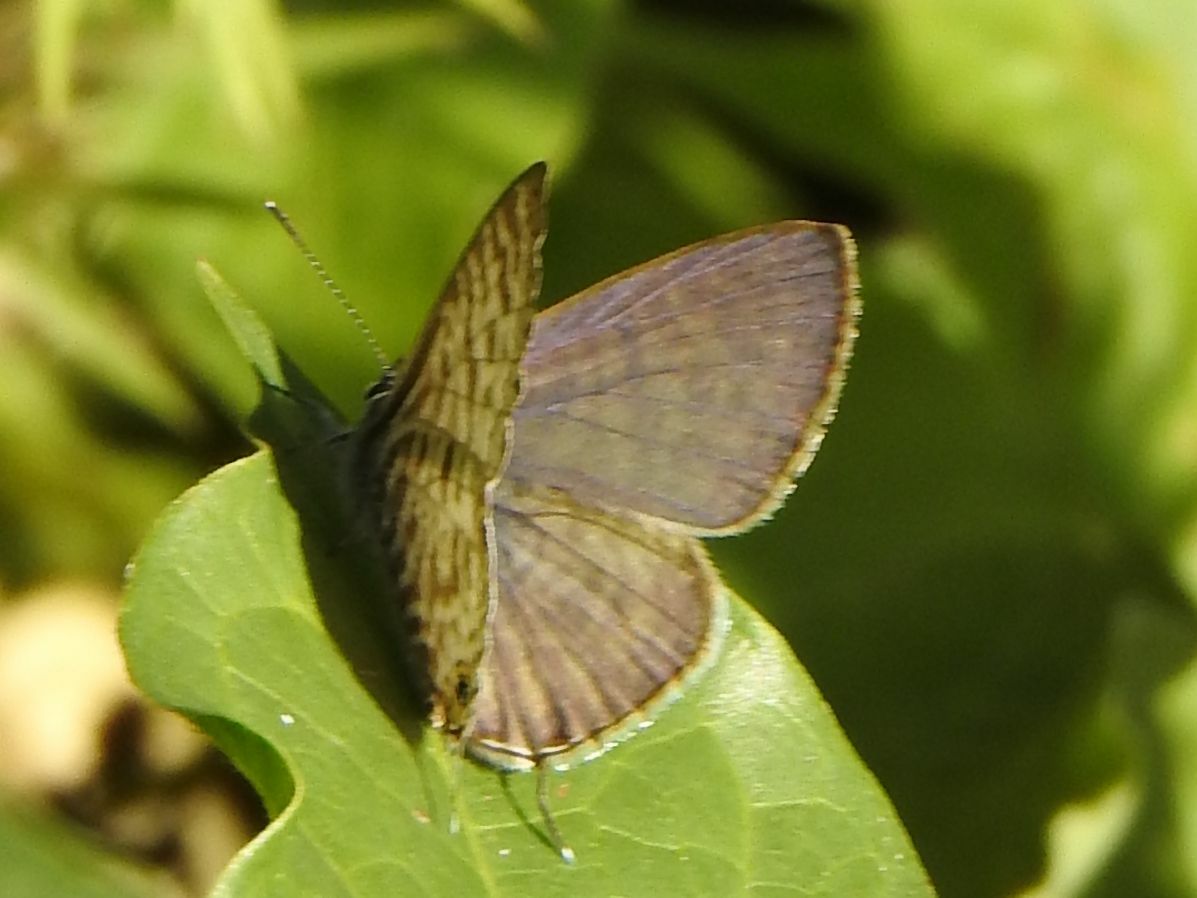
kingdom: Animalia
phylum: Arthropoda
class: Insecta
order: Lepidoptera
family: Lycaenidae
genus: Leptotes
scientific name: Leptotes
